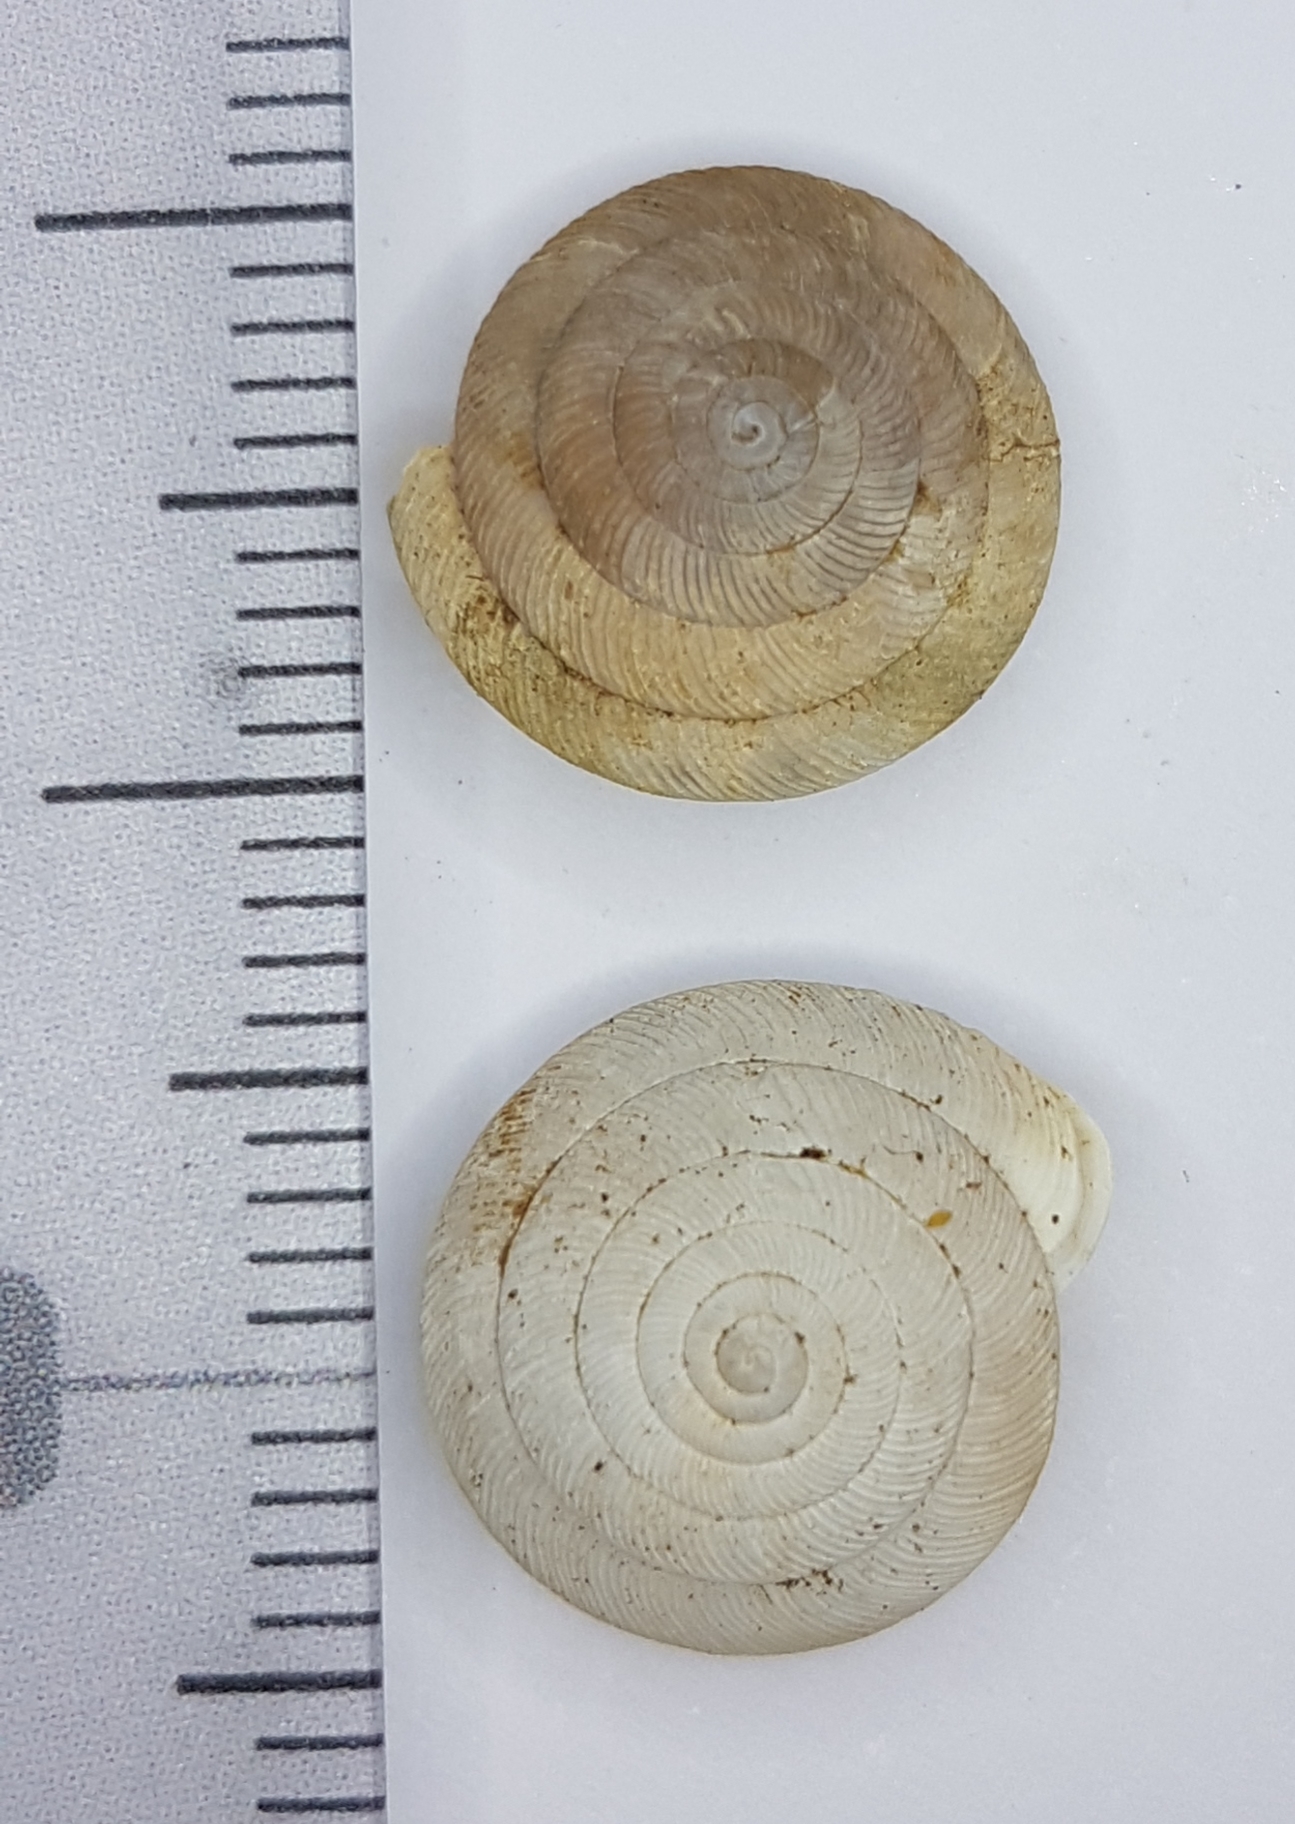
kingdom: Animalia
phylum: Mollusca
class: Gastropoda
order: Stylommatophora
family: Trissexodontidae
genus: Oestophora
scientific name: Oestophora barbula
